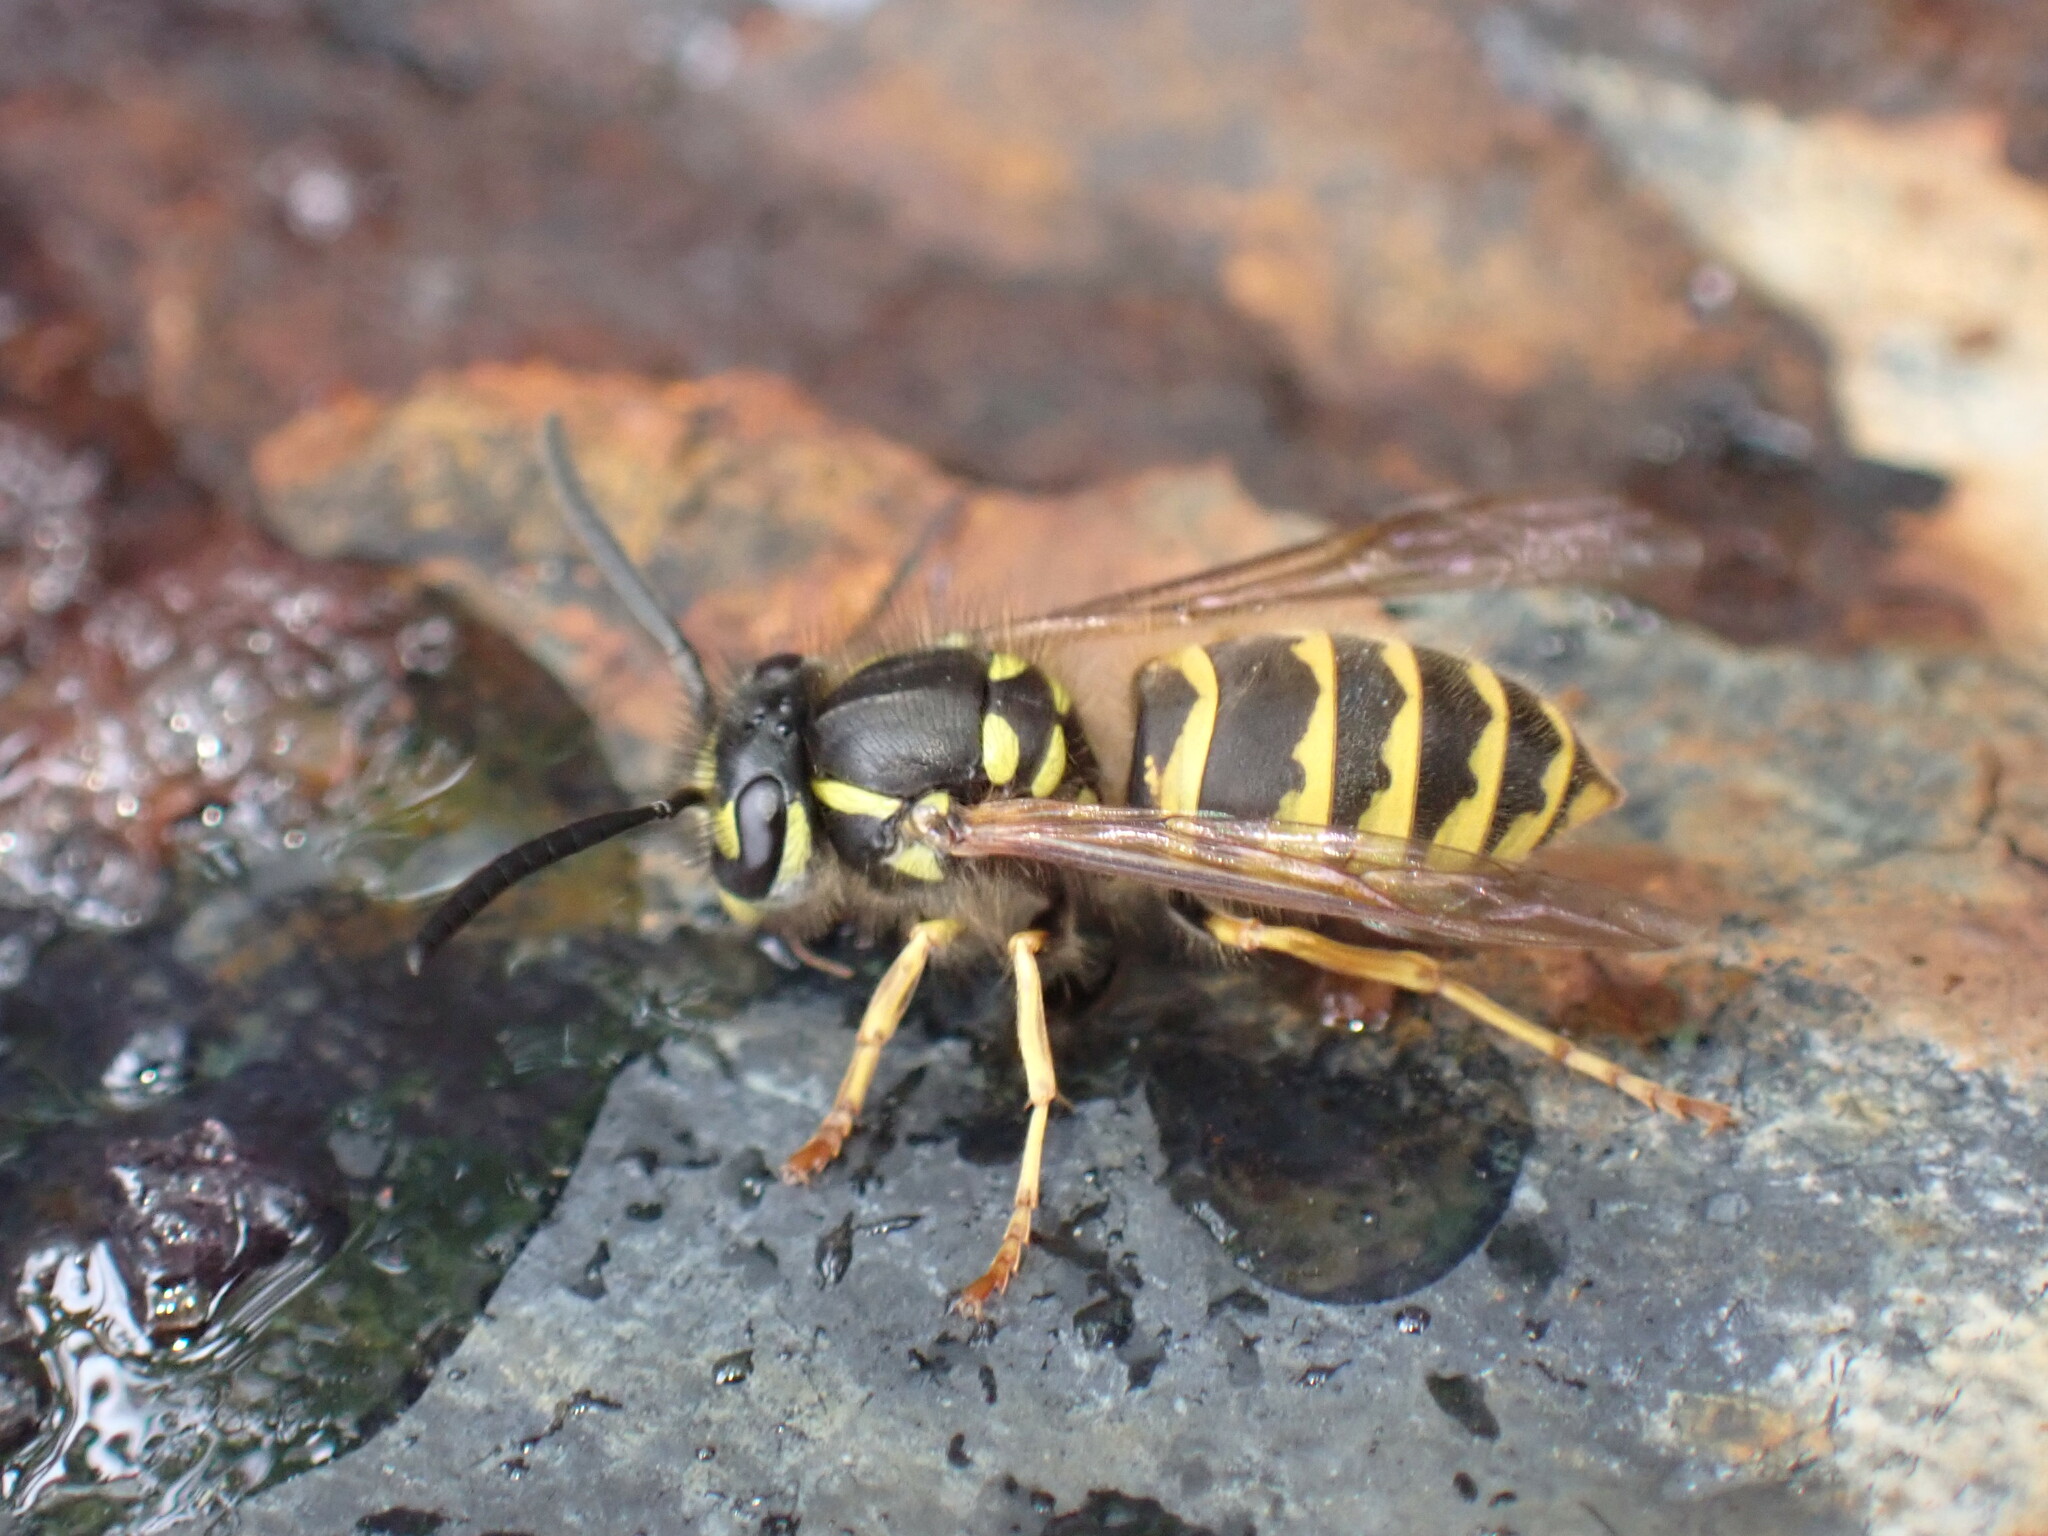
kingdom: Animalia
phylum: Arthropoda
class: Insecta
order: Hymenoptera
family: Vespidae
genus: Vespula
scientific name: Vespula vulgaris
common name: Common wasp
